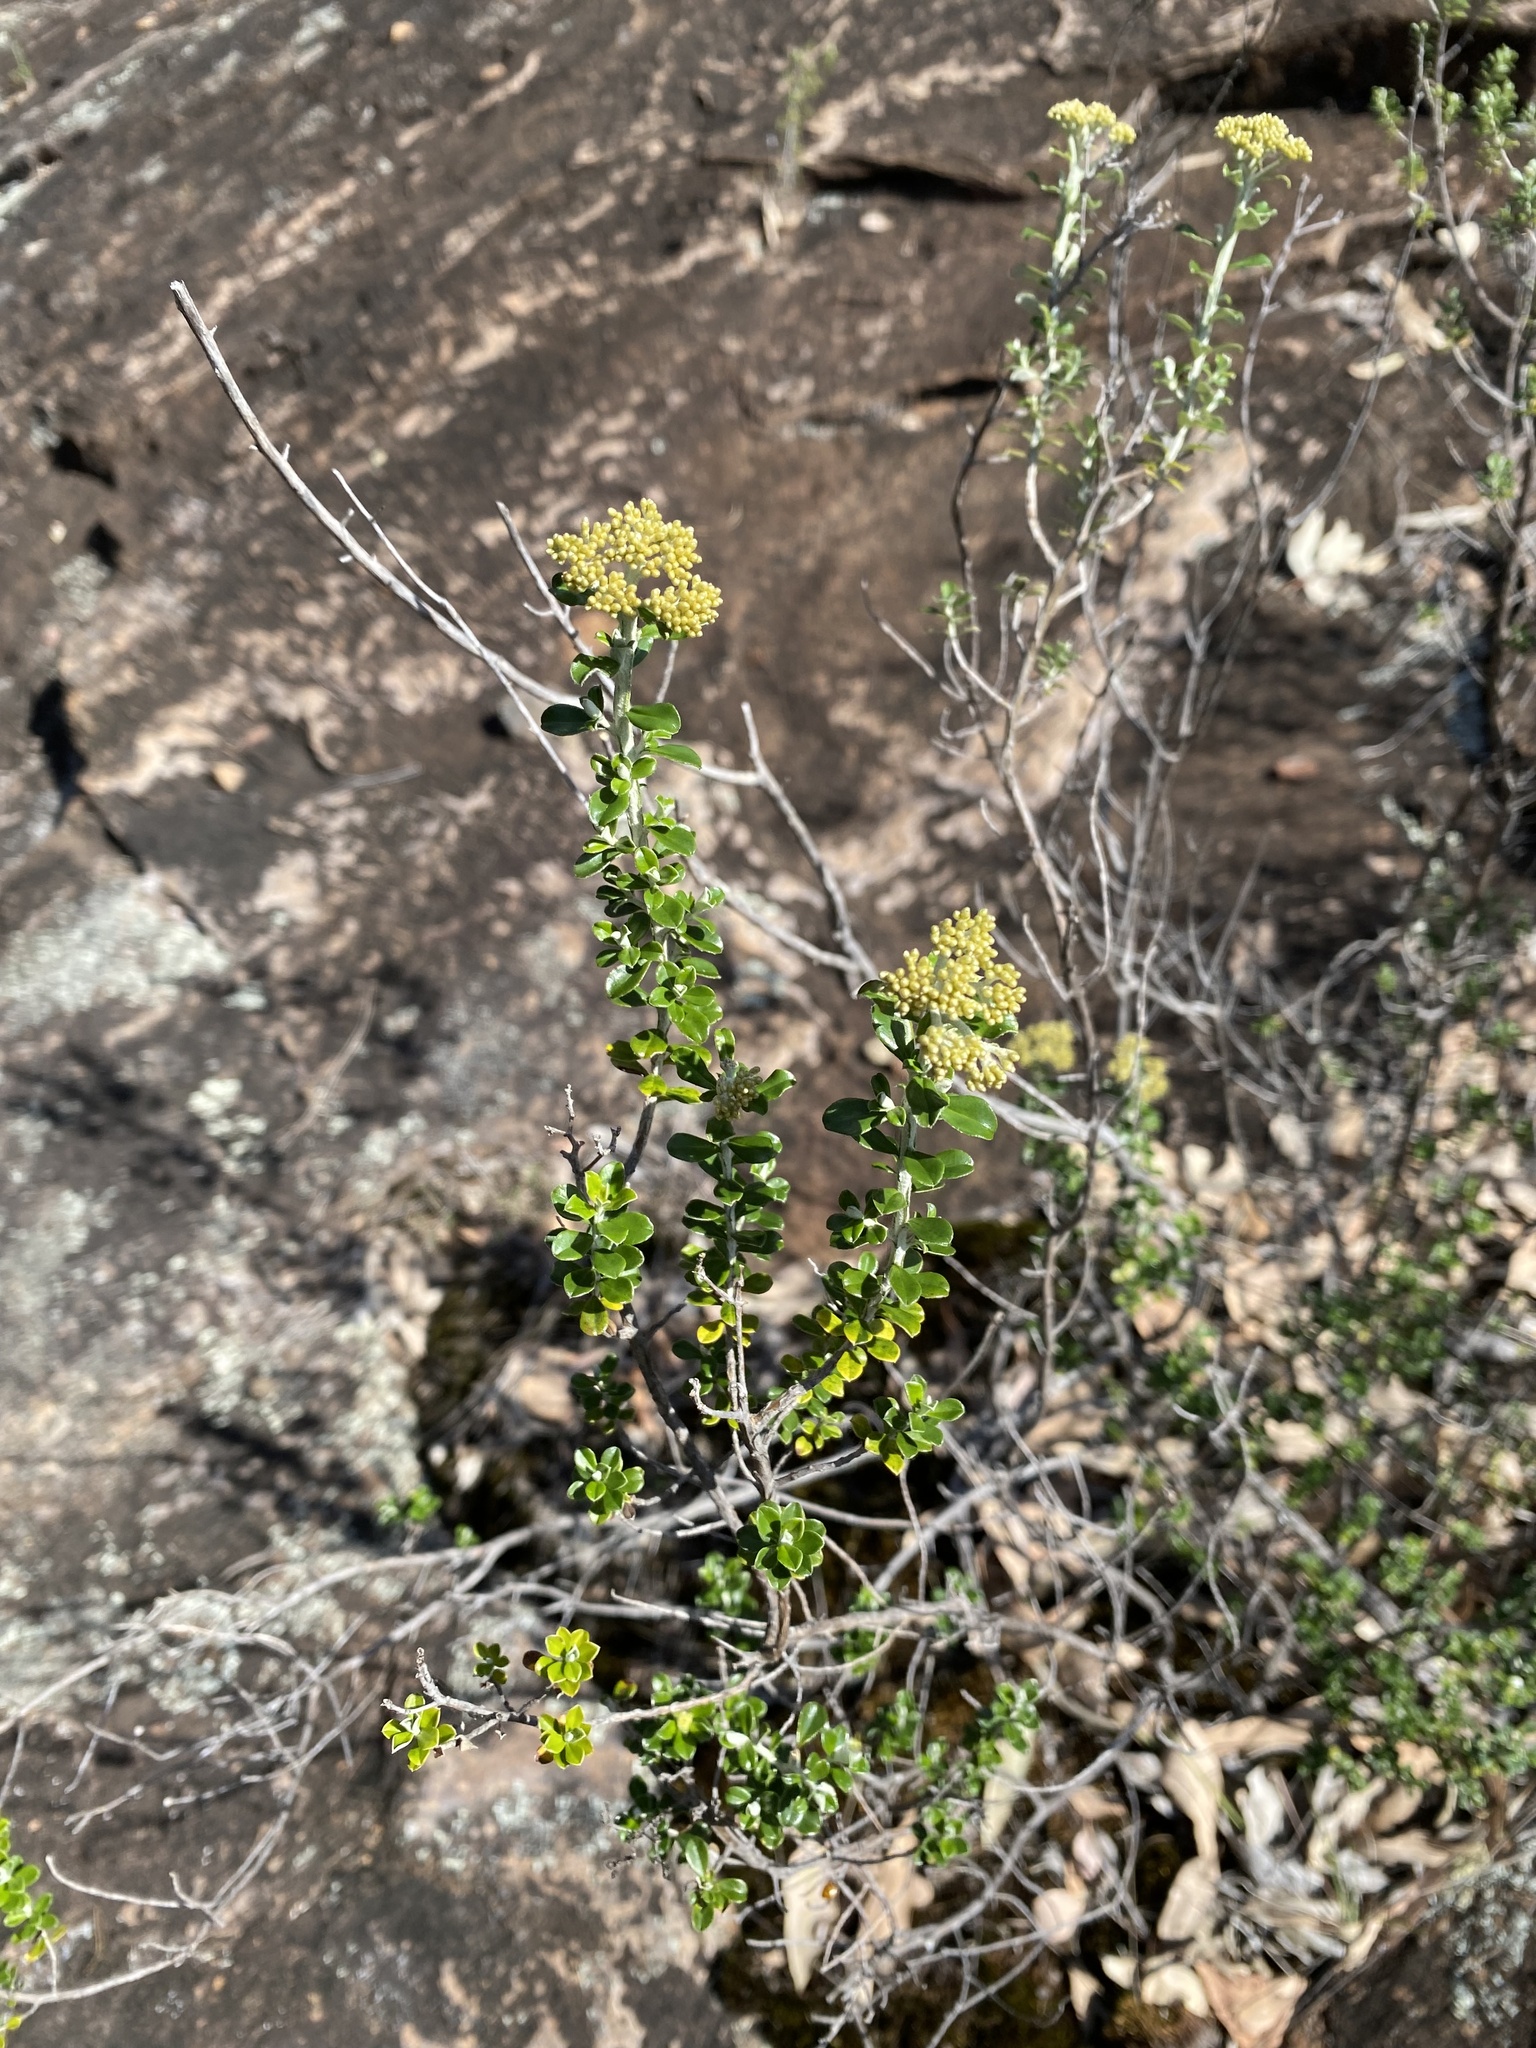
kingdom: Plantae
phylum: Tracheophyta
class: Magnoliopsida
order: Asterales
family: Asteraceae
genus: Ozothamnus
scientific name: Ozothamnus obcordatus
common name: Grey everlasting
